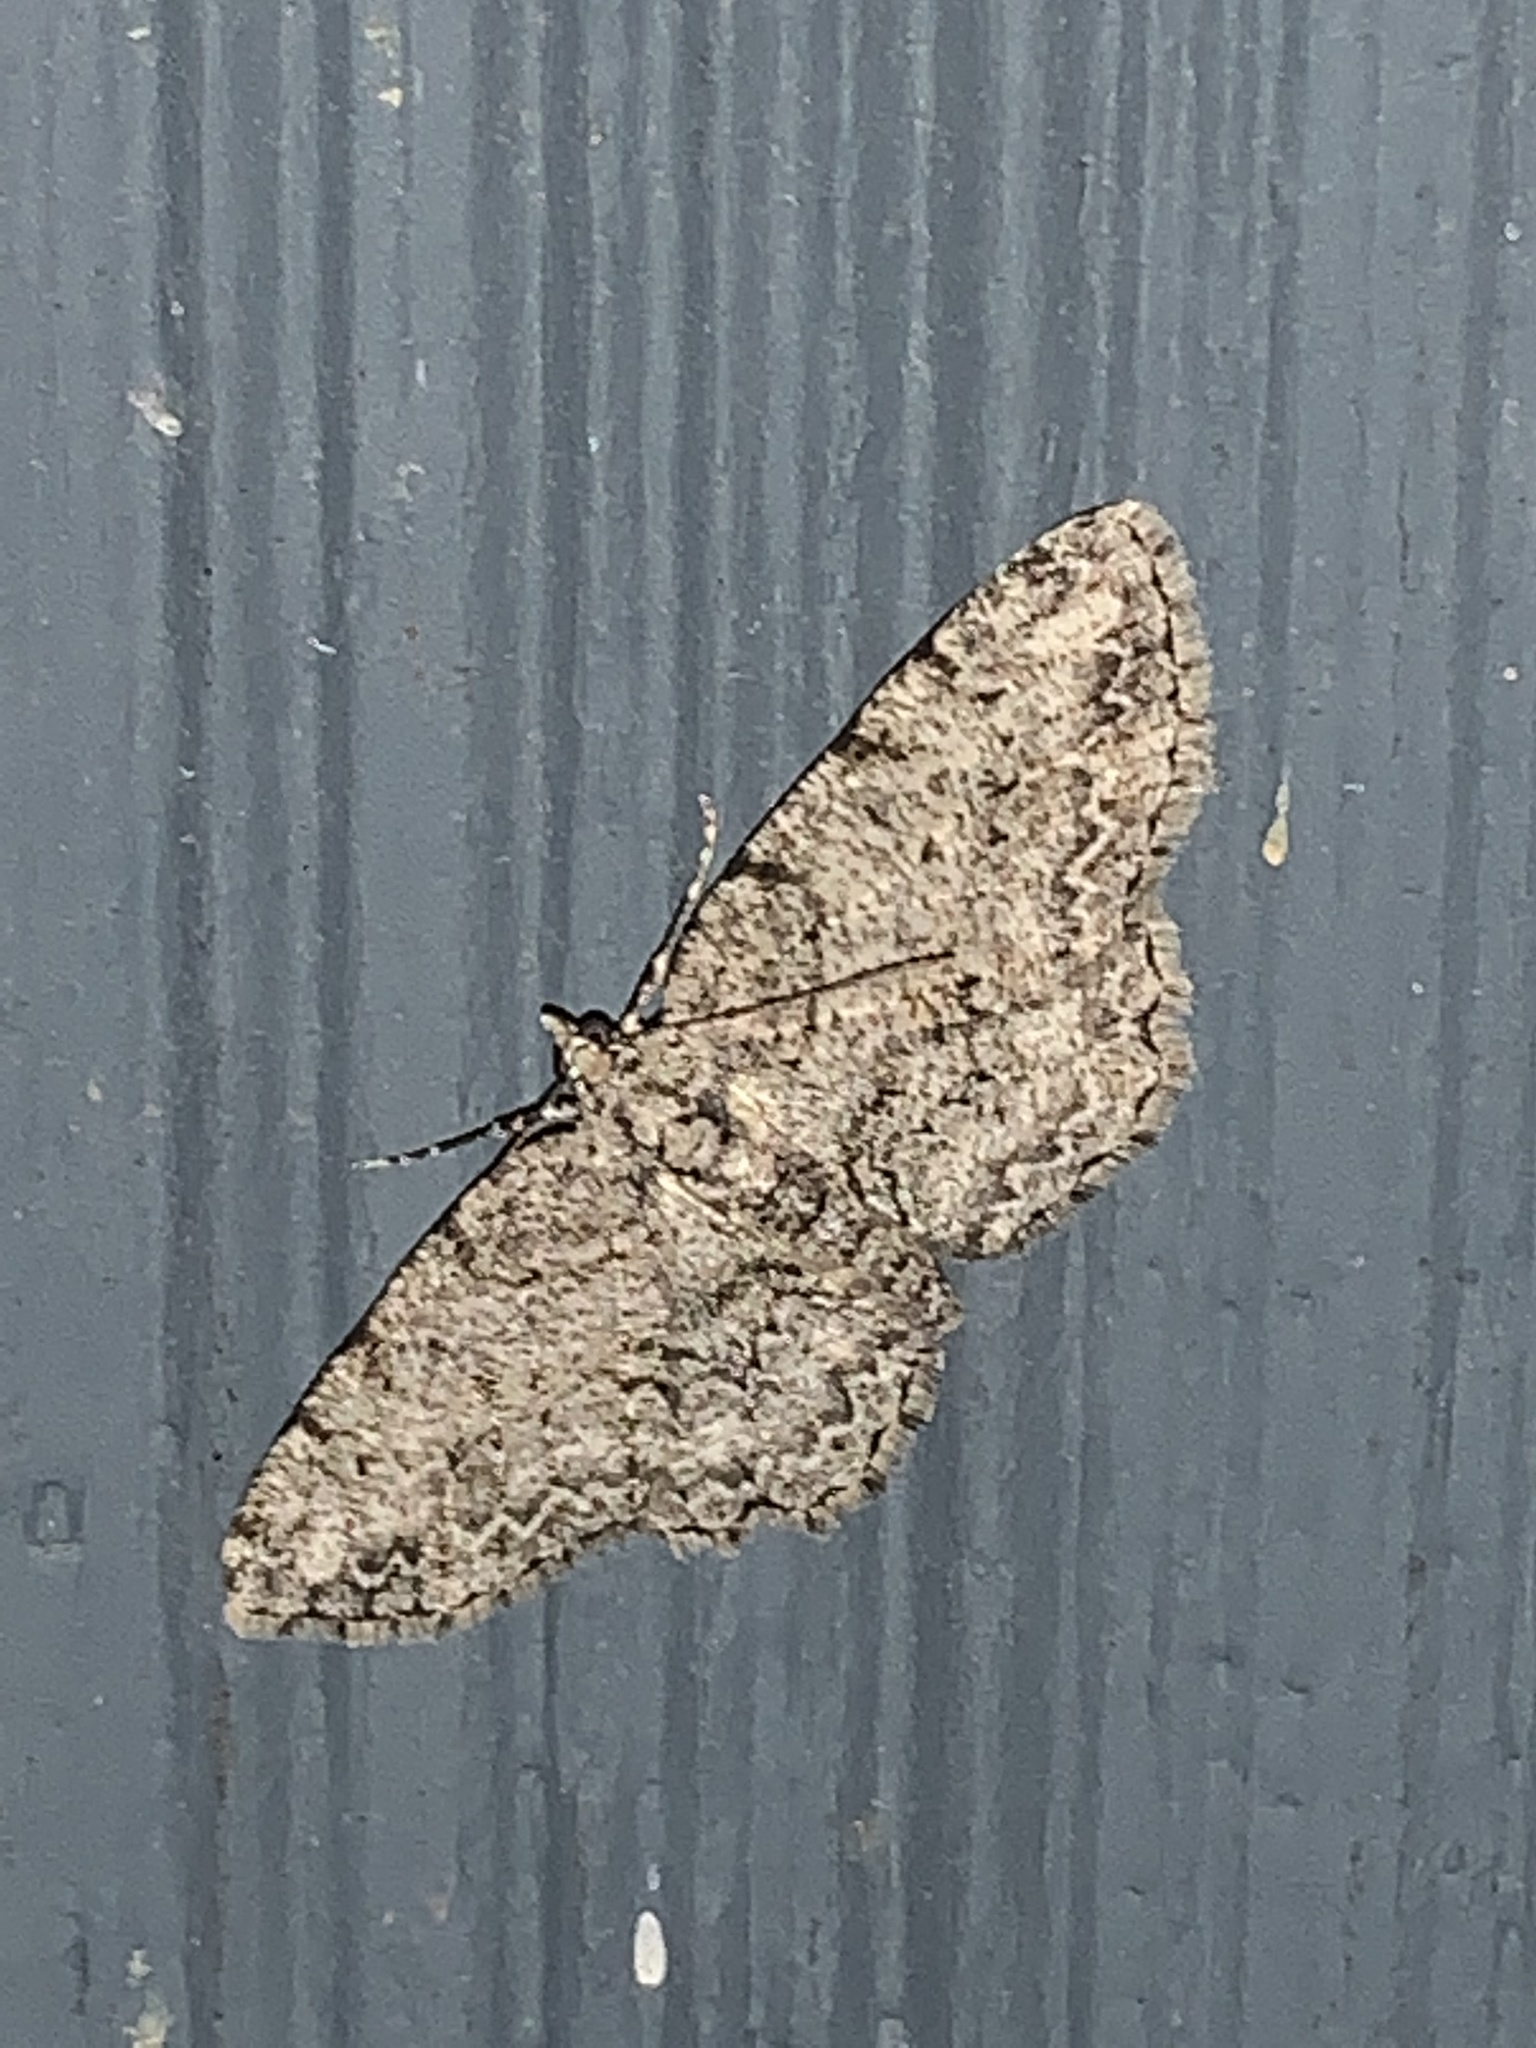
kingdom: Animalia
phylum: Arthropoda
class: Insecta
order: Lepidoptera
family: Geometridae
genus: Protoboarmia
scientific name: Protoboarmia porcelaria
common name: Porcelain gray
